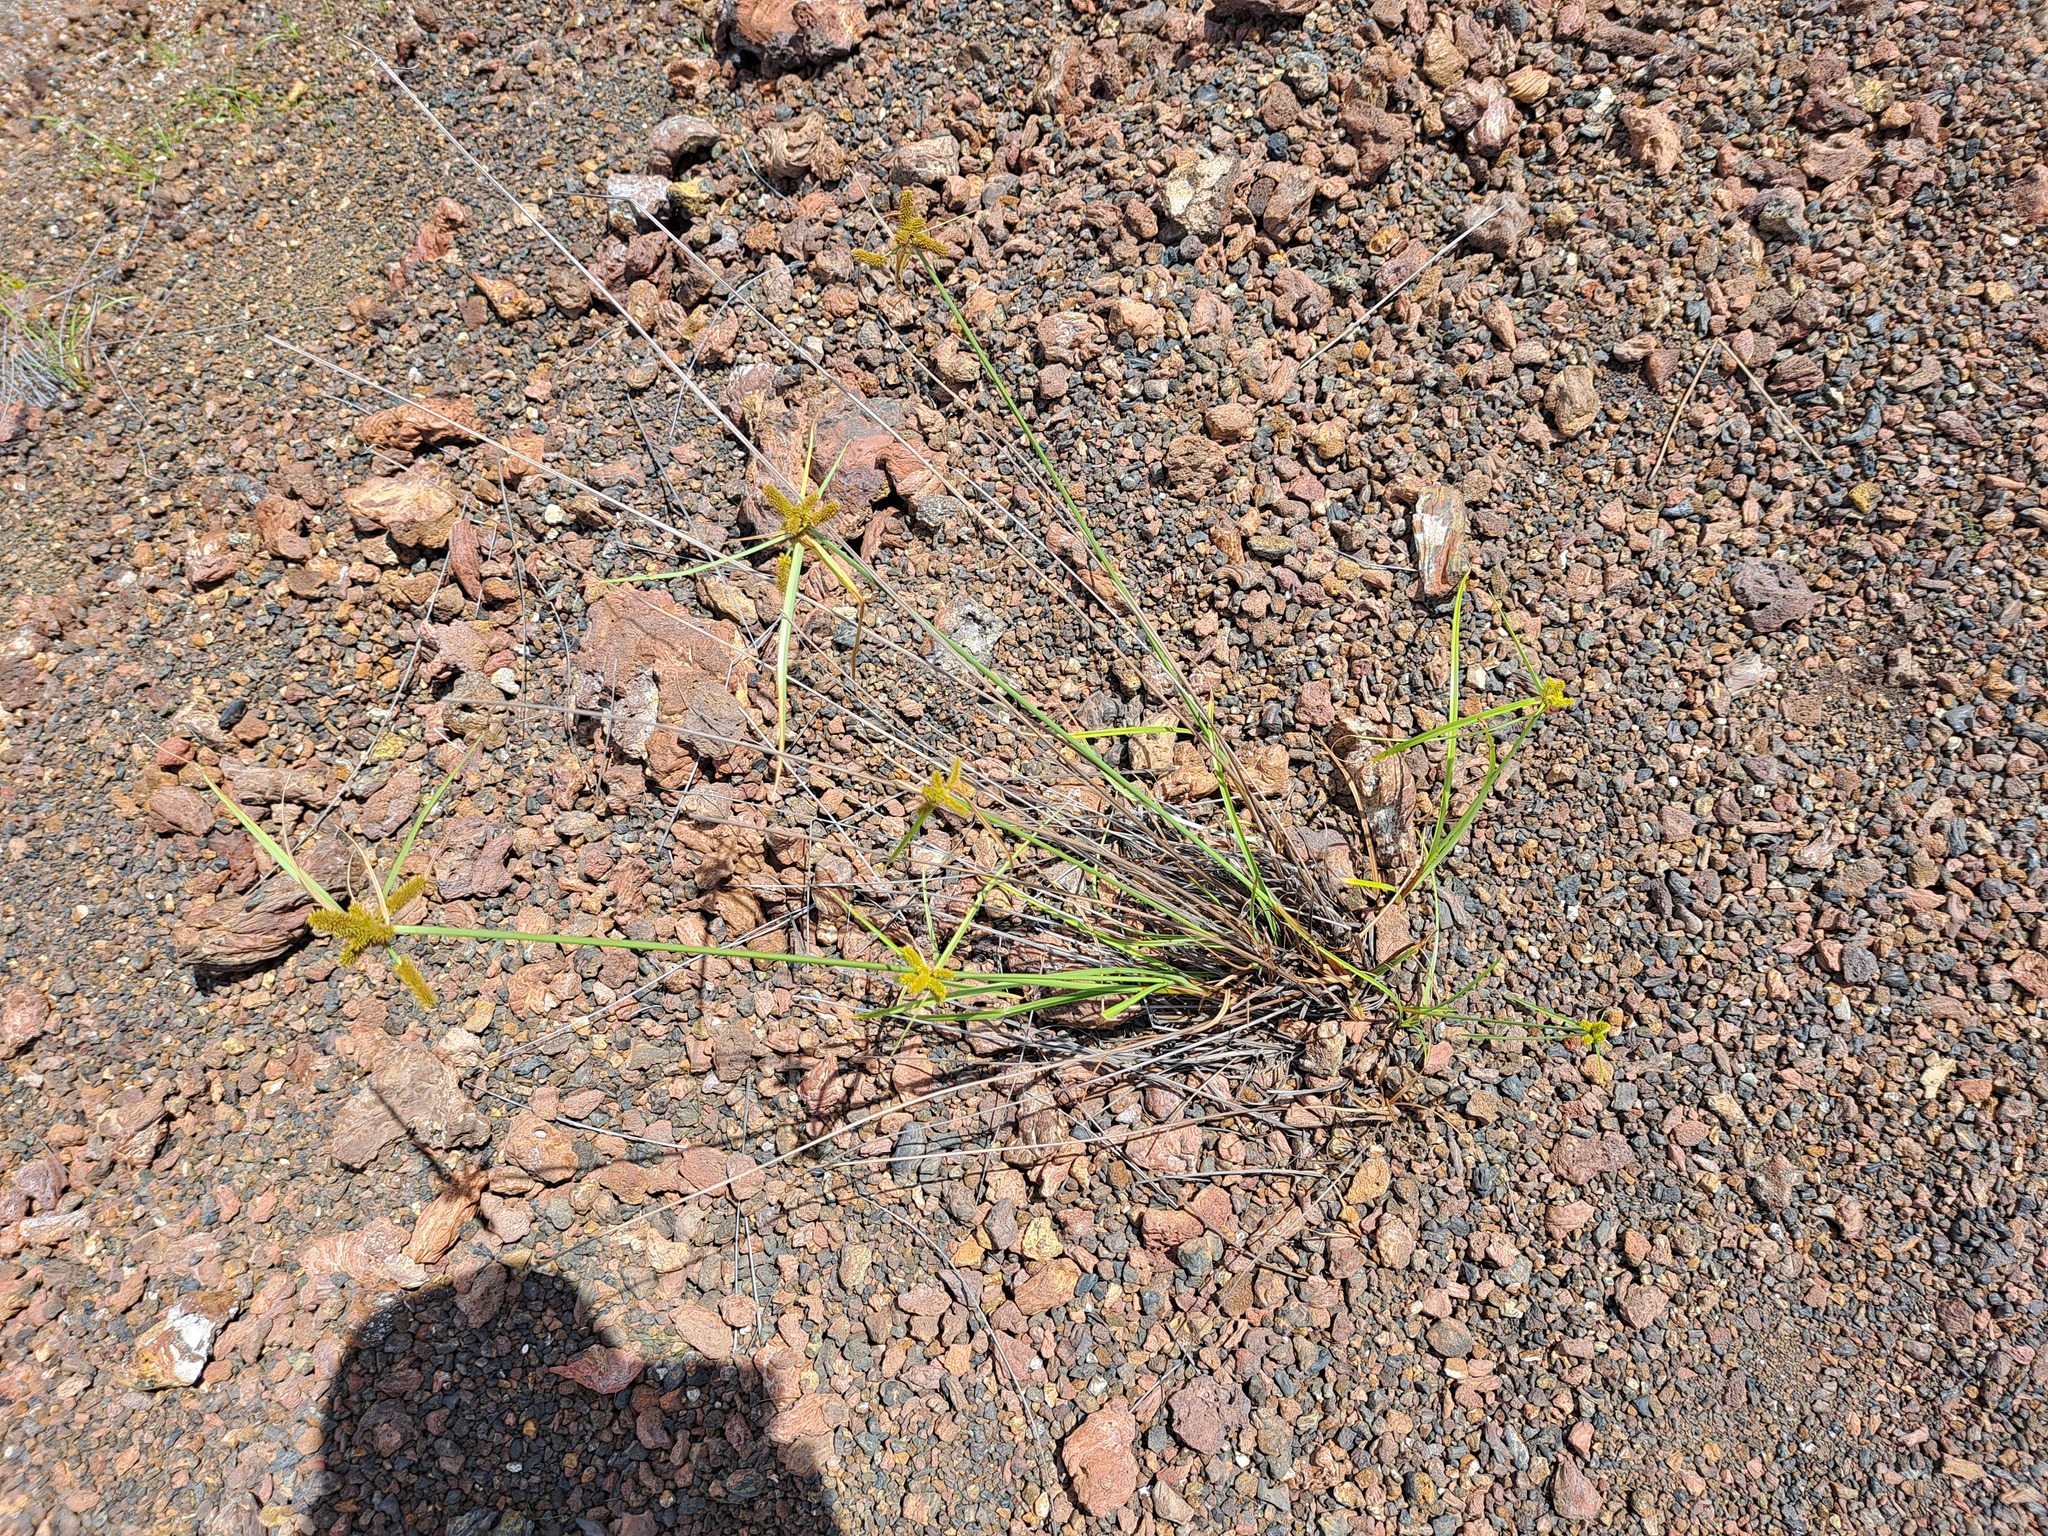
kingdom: Plantae
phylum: Tracheophyta
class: Liliopsida
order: Poales
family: Cyperaceae
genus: Cyperus
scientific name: Cyperus anderssonii
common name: Andersson's sedge
